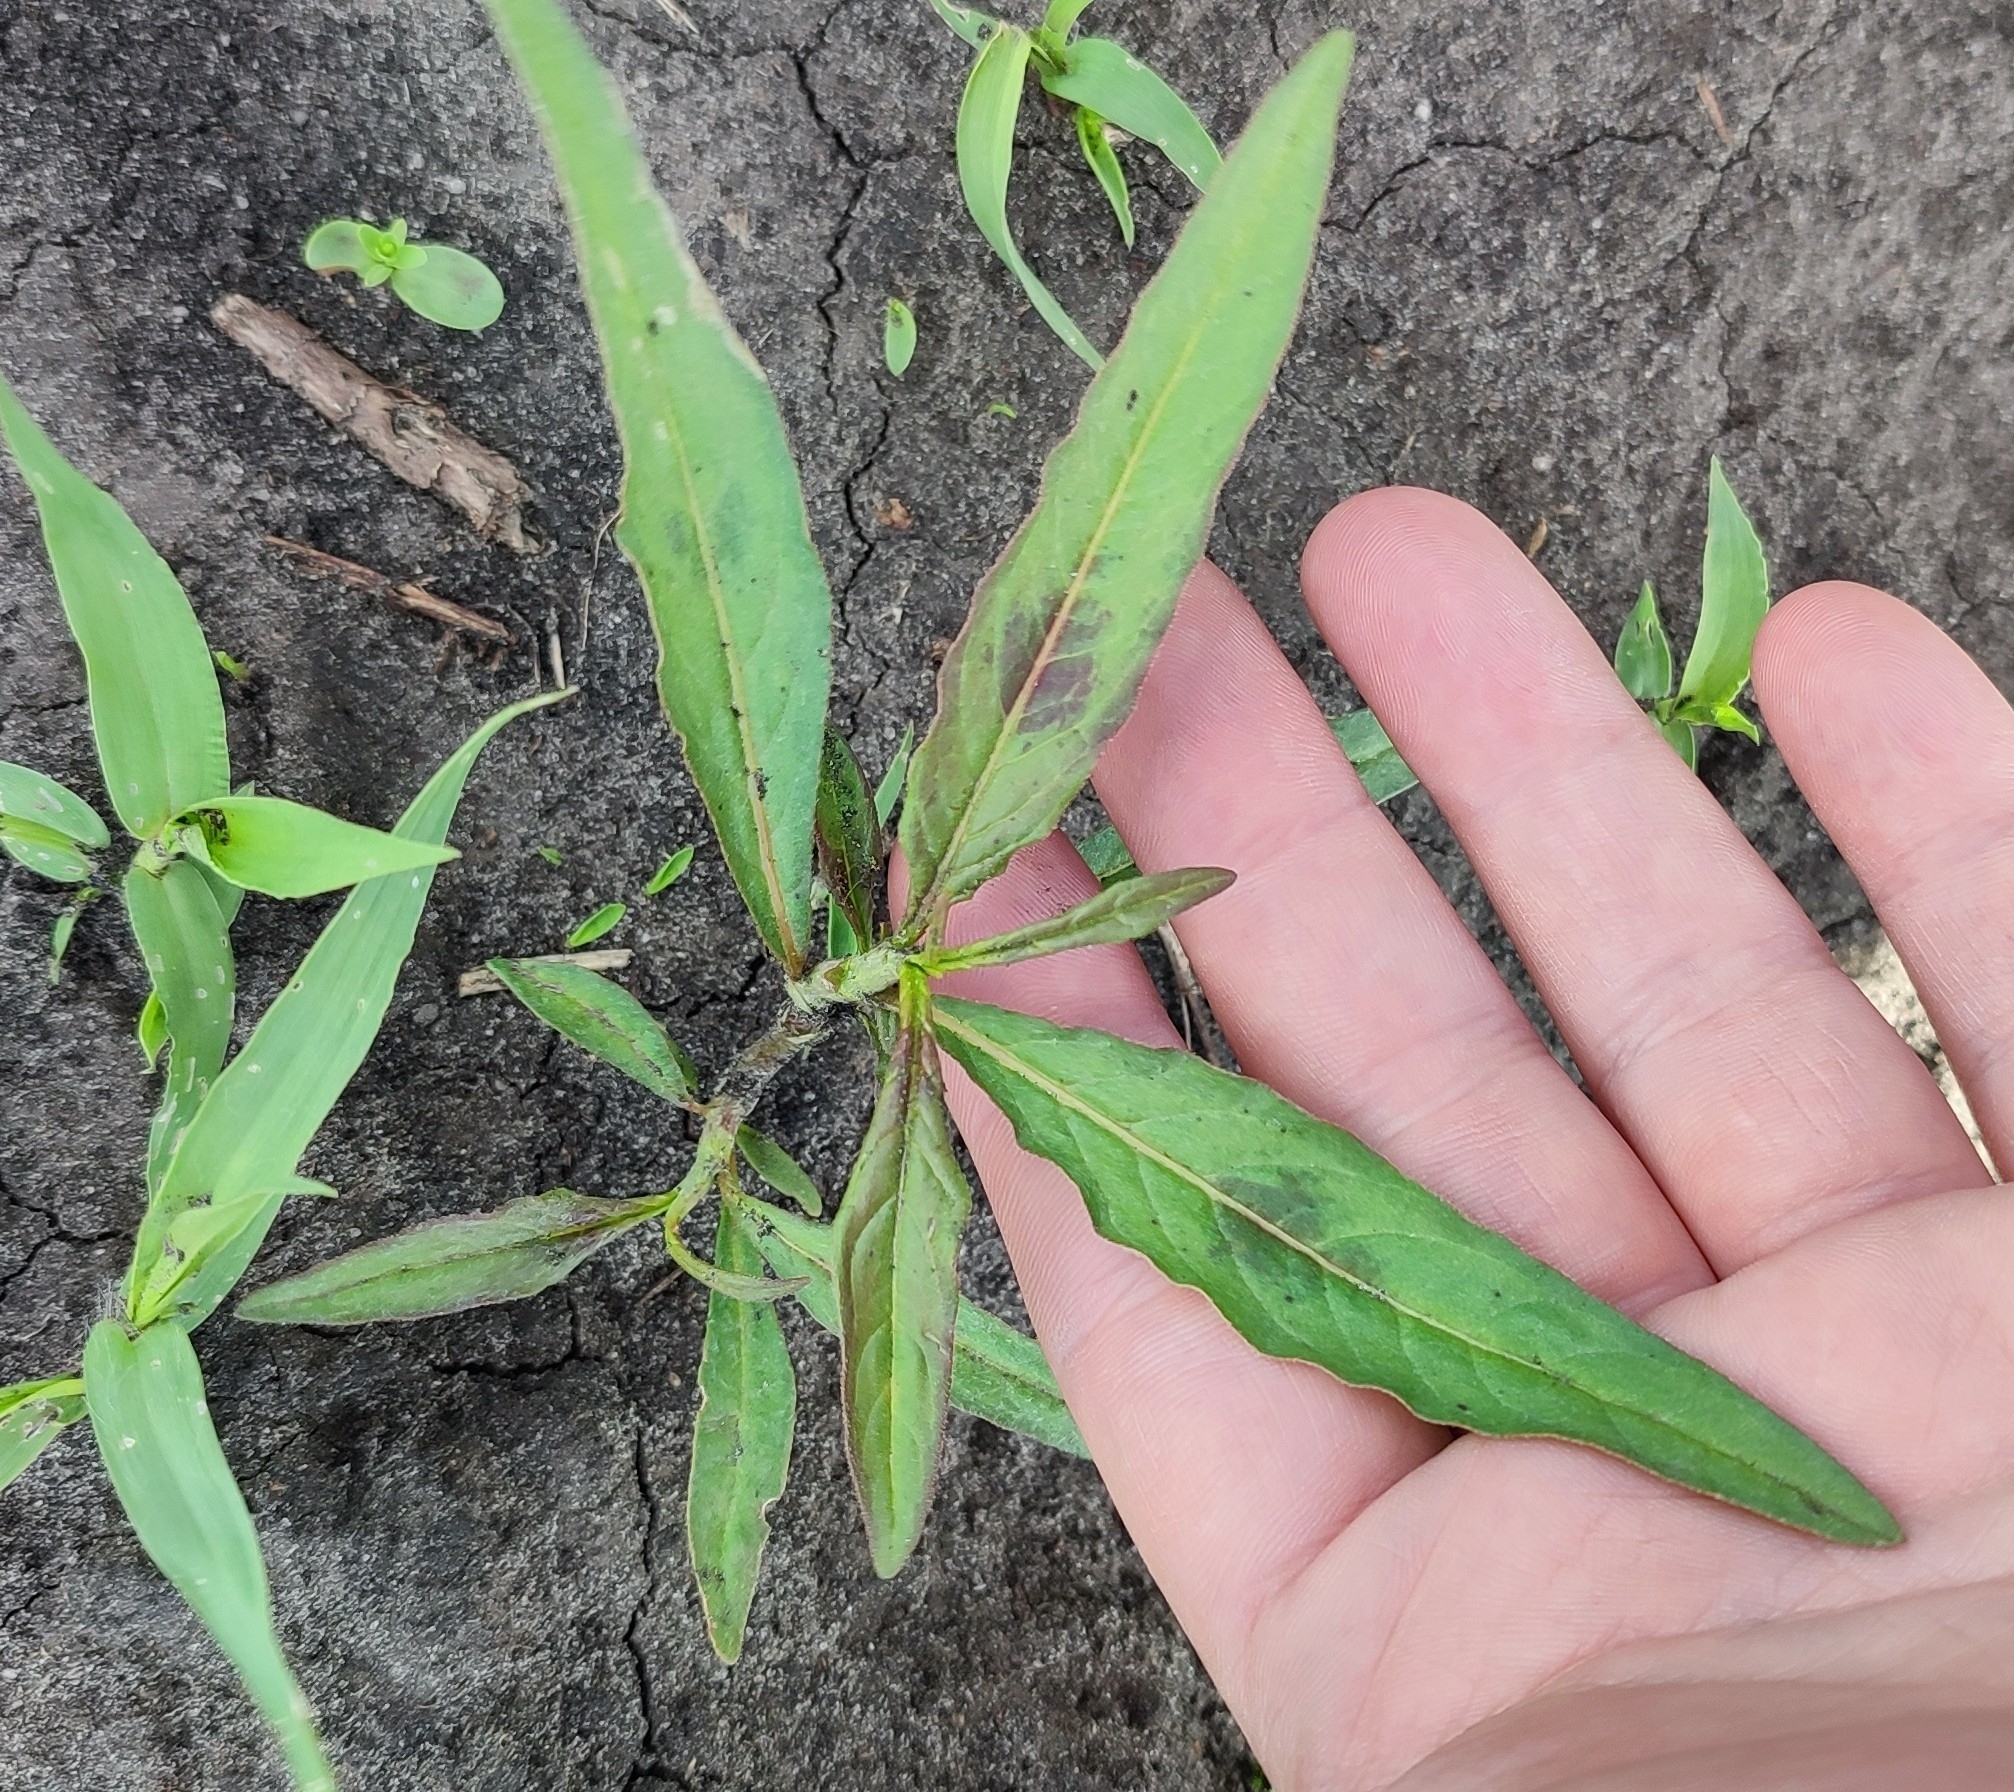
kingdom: Plantae
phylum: Tracheophyta
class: Magnoliopsida
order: Caryophyllales
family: Polygonaceae
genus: Persicaria
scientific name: Persicaria lapathifolia
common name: Curlytop knotweed
